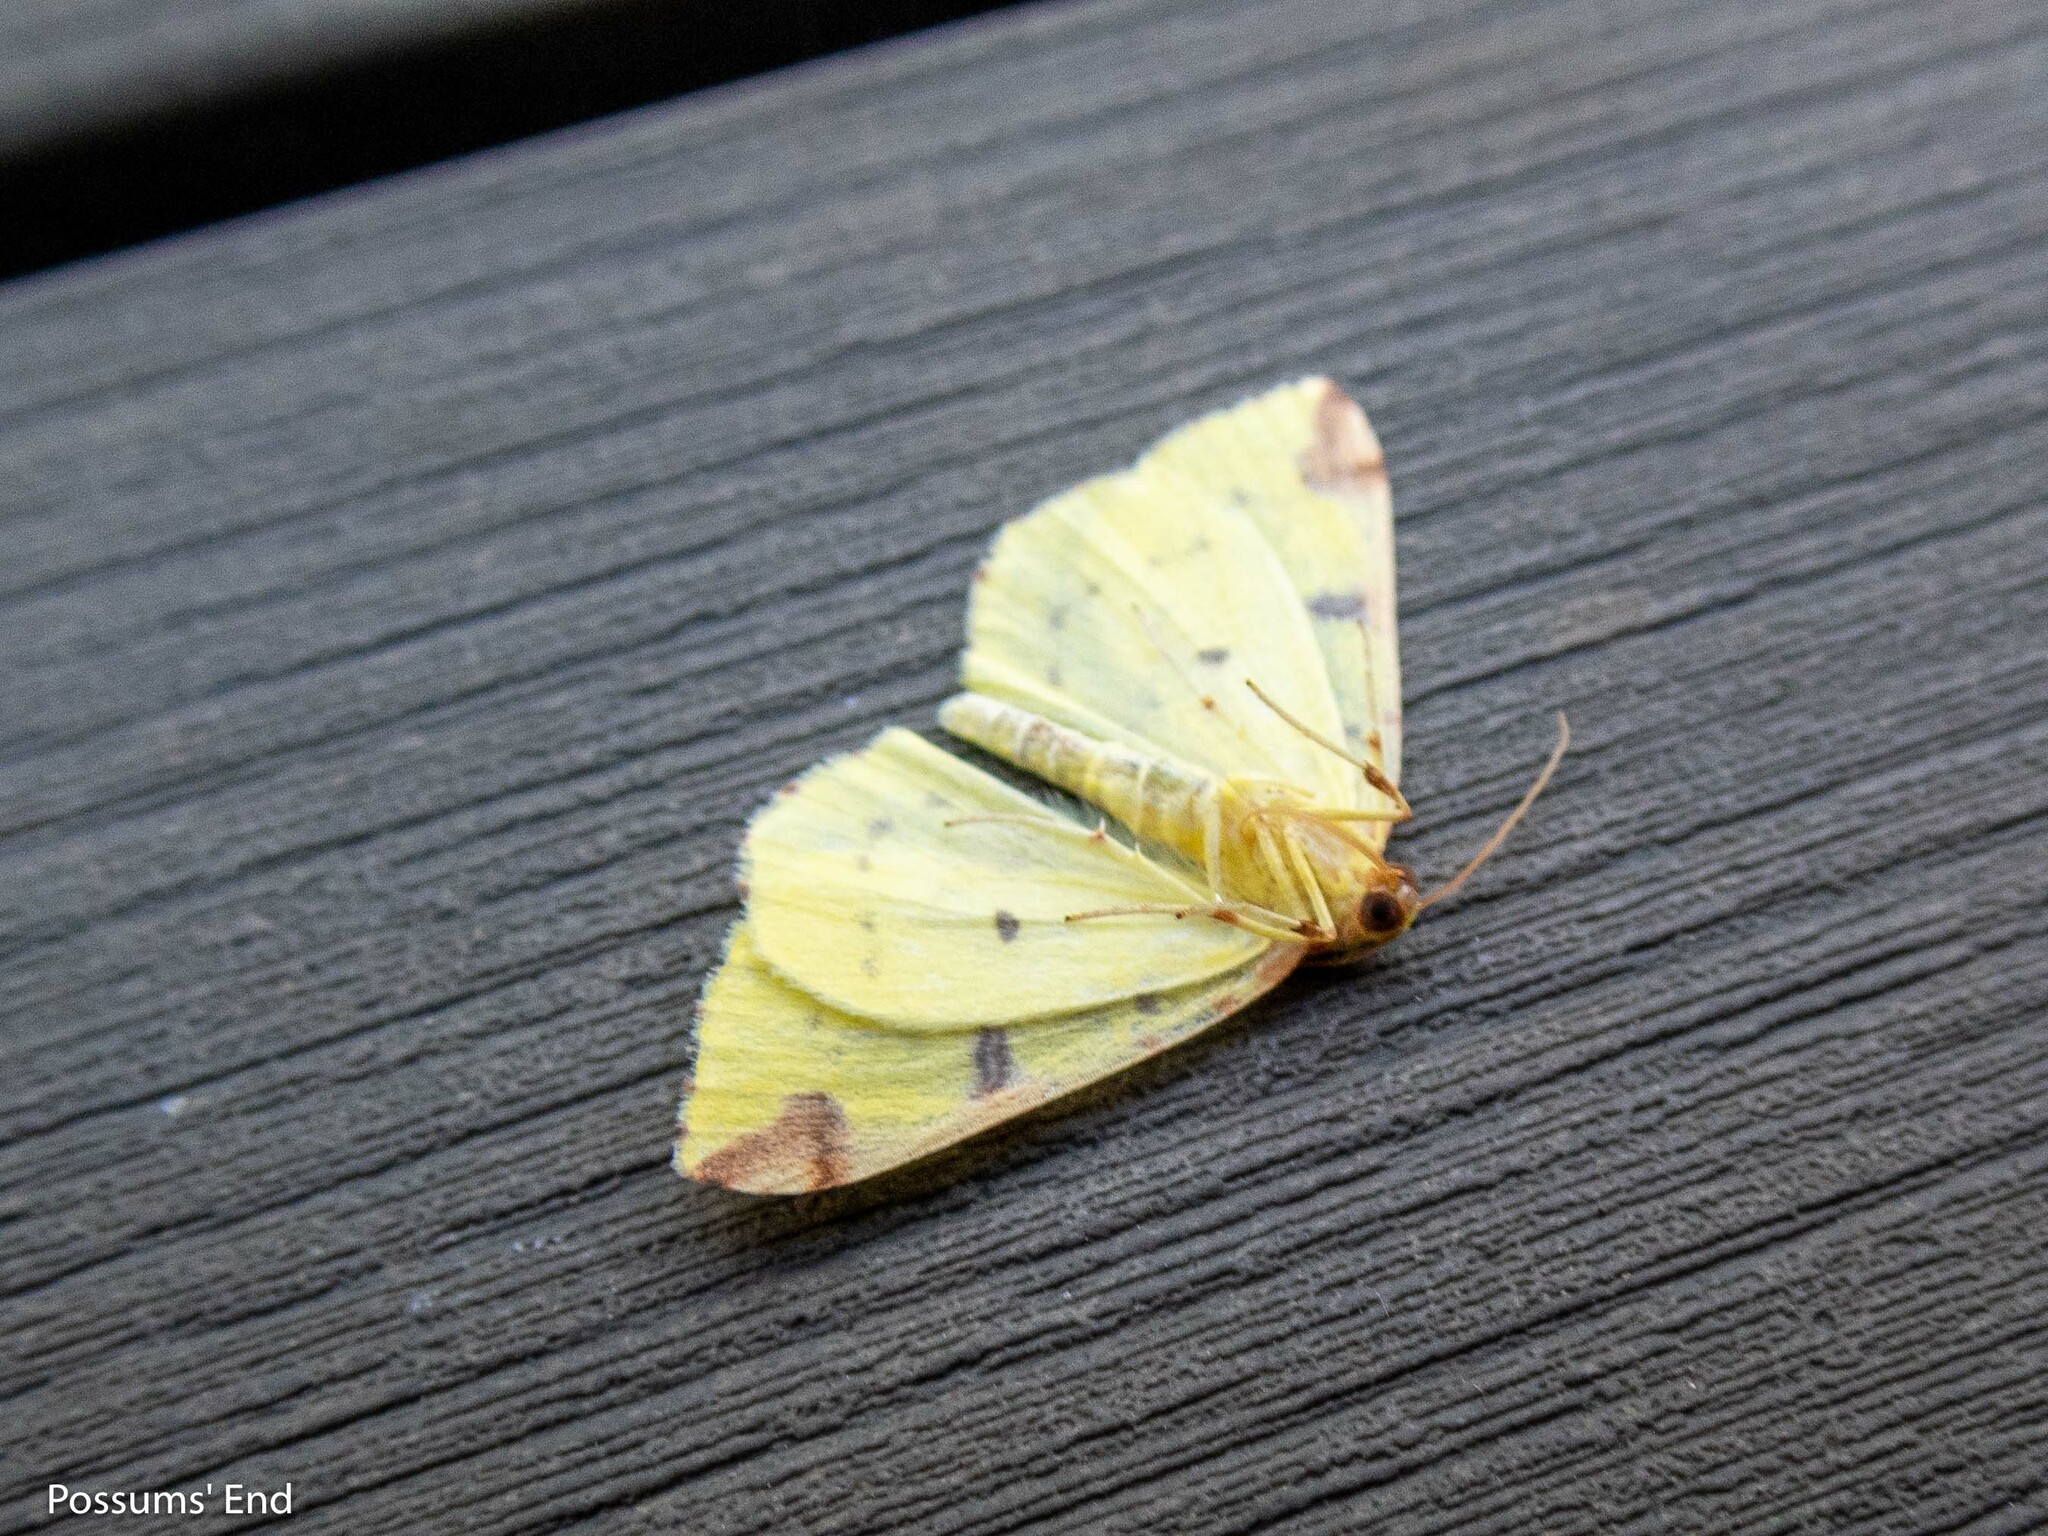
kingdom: Animalia
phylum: Arthropoda
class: Insecta
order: Lepidoptera
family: Geometridae
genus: Opisthograptis
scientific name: Opisthograptis luteolata
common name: Brimstone moth
